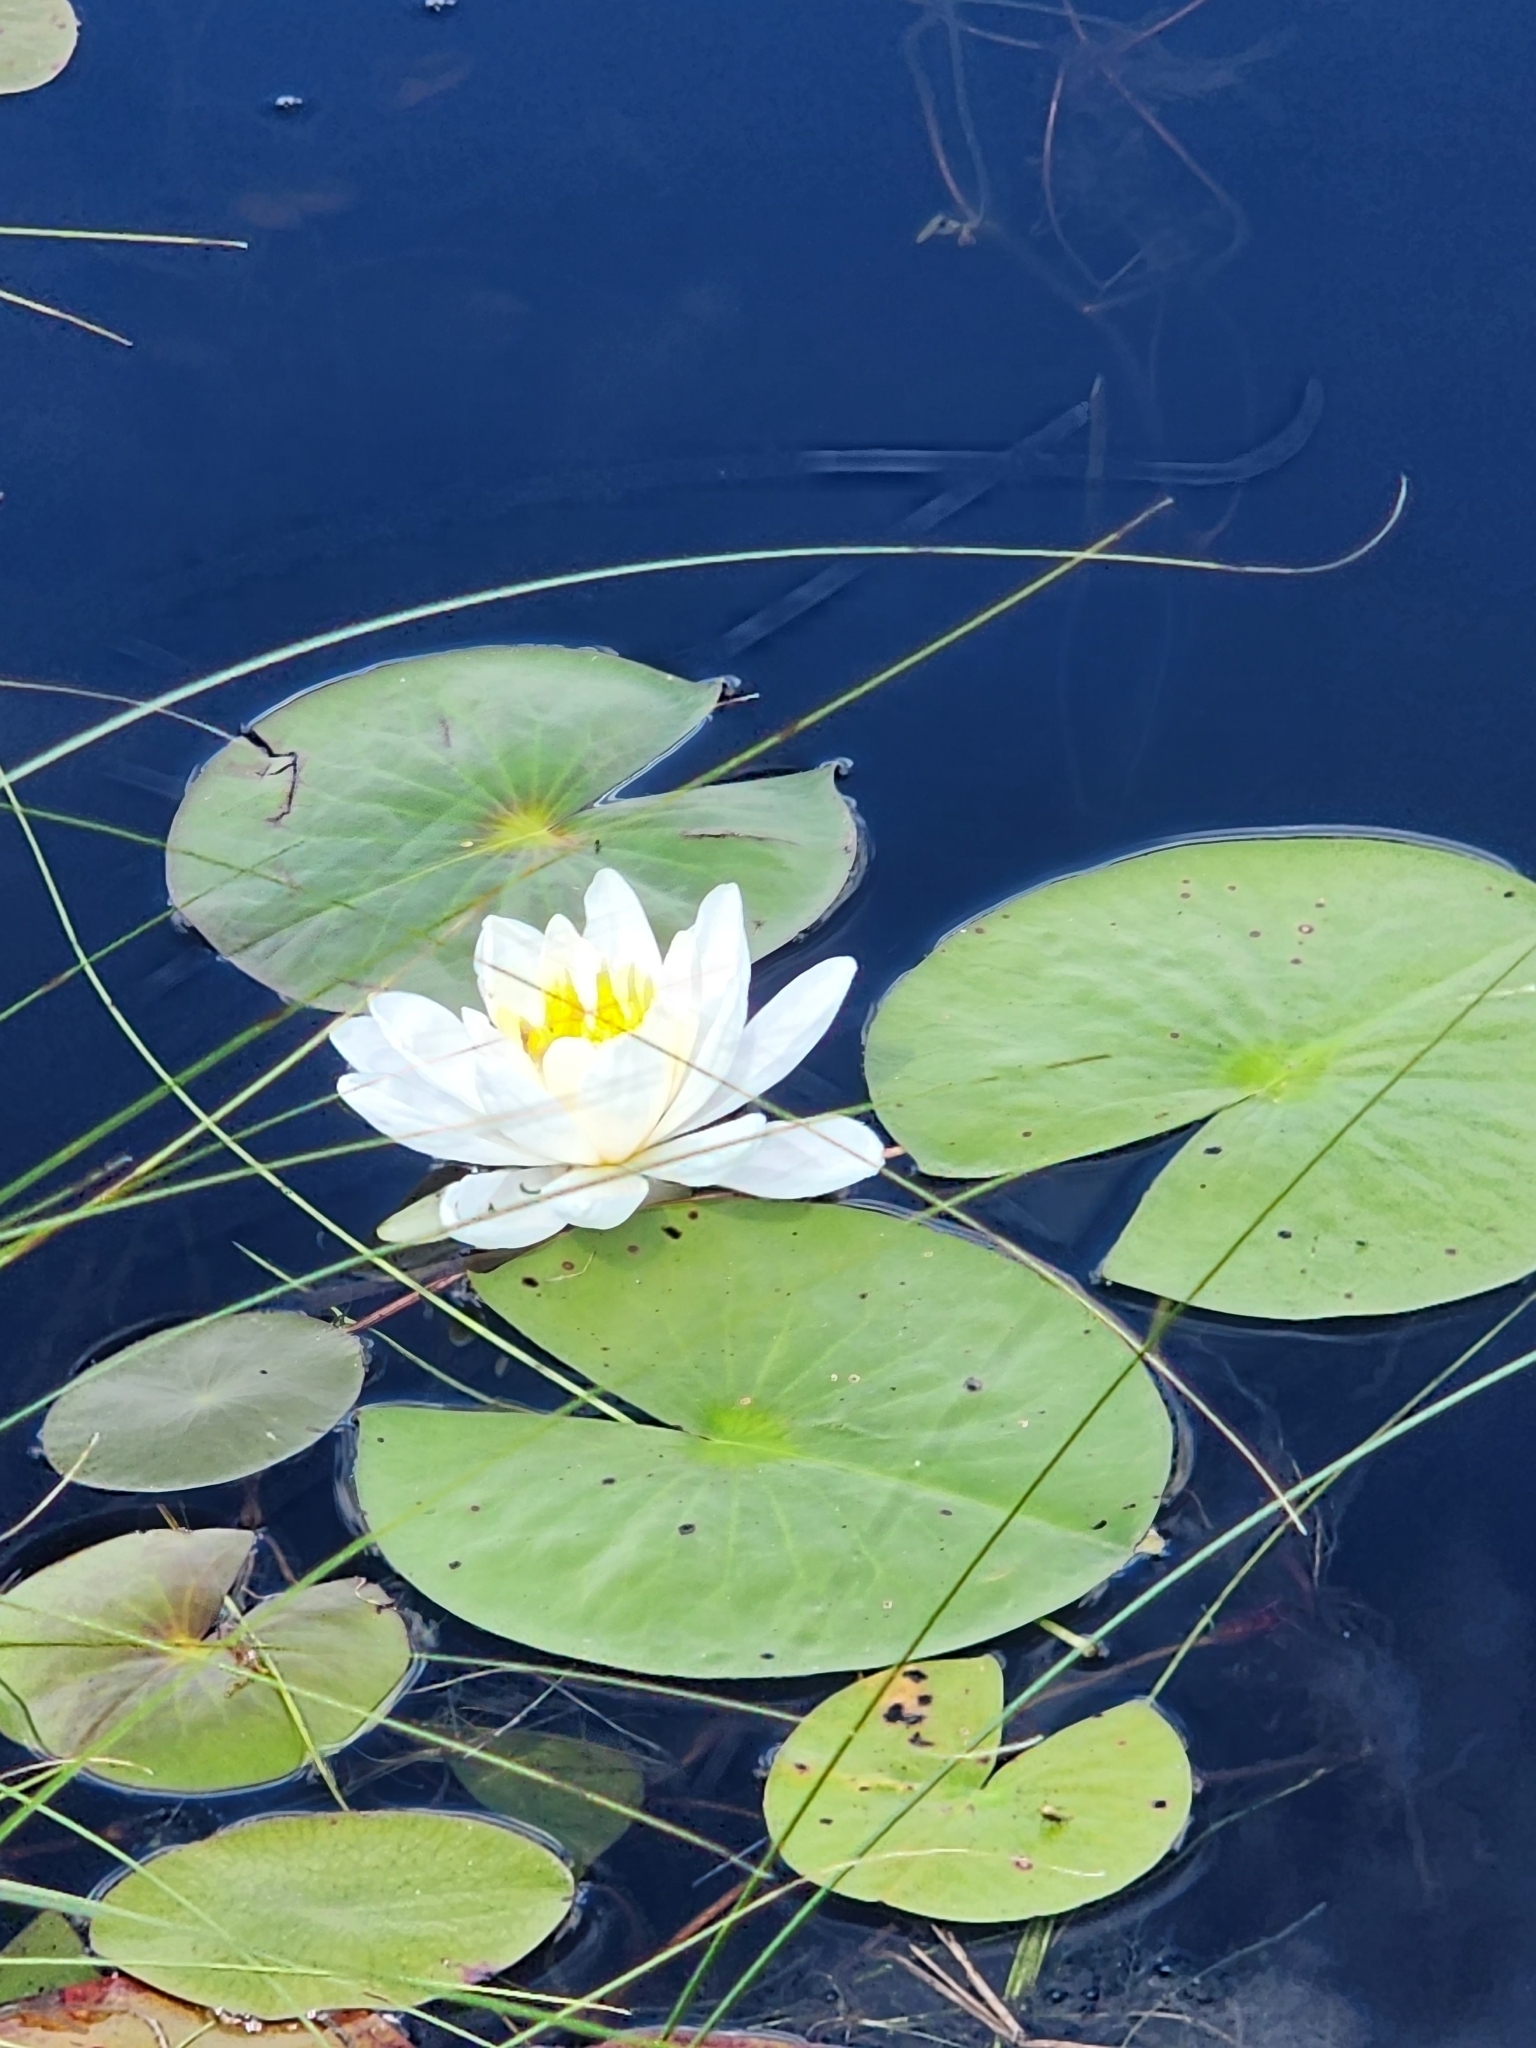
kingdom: Plantae
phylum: Tracheophyta
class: Magnoliopsida
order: Nymphaeales
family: Nymphaeaceae
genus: Nymphaea
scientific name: Nymphaea odorata
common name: Fragrant water-lily
